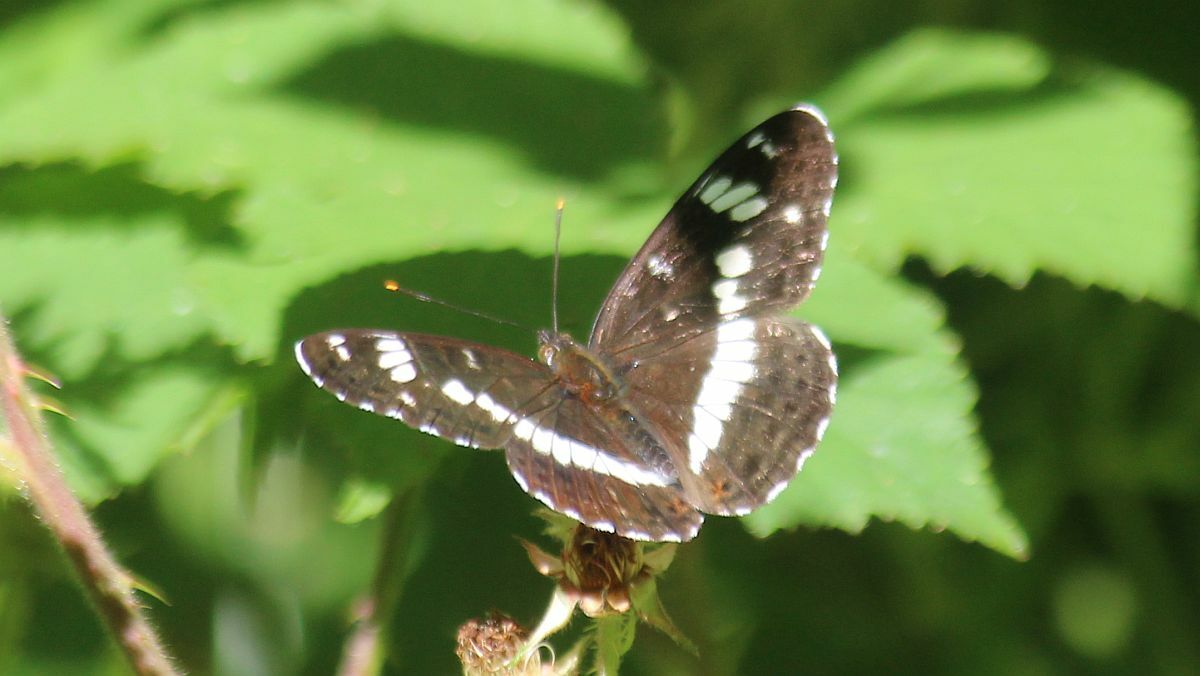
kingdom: Animalia
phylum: Arthropoda
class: Insecta
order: Lepidoptera
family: Nymphalidae
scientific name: Nymphalidae
